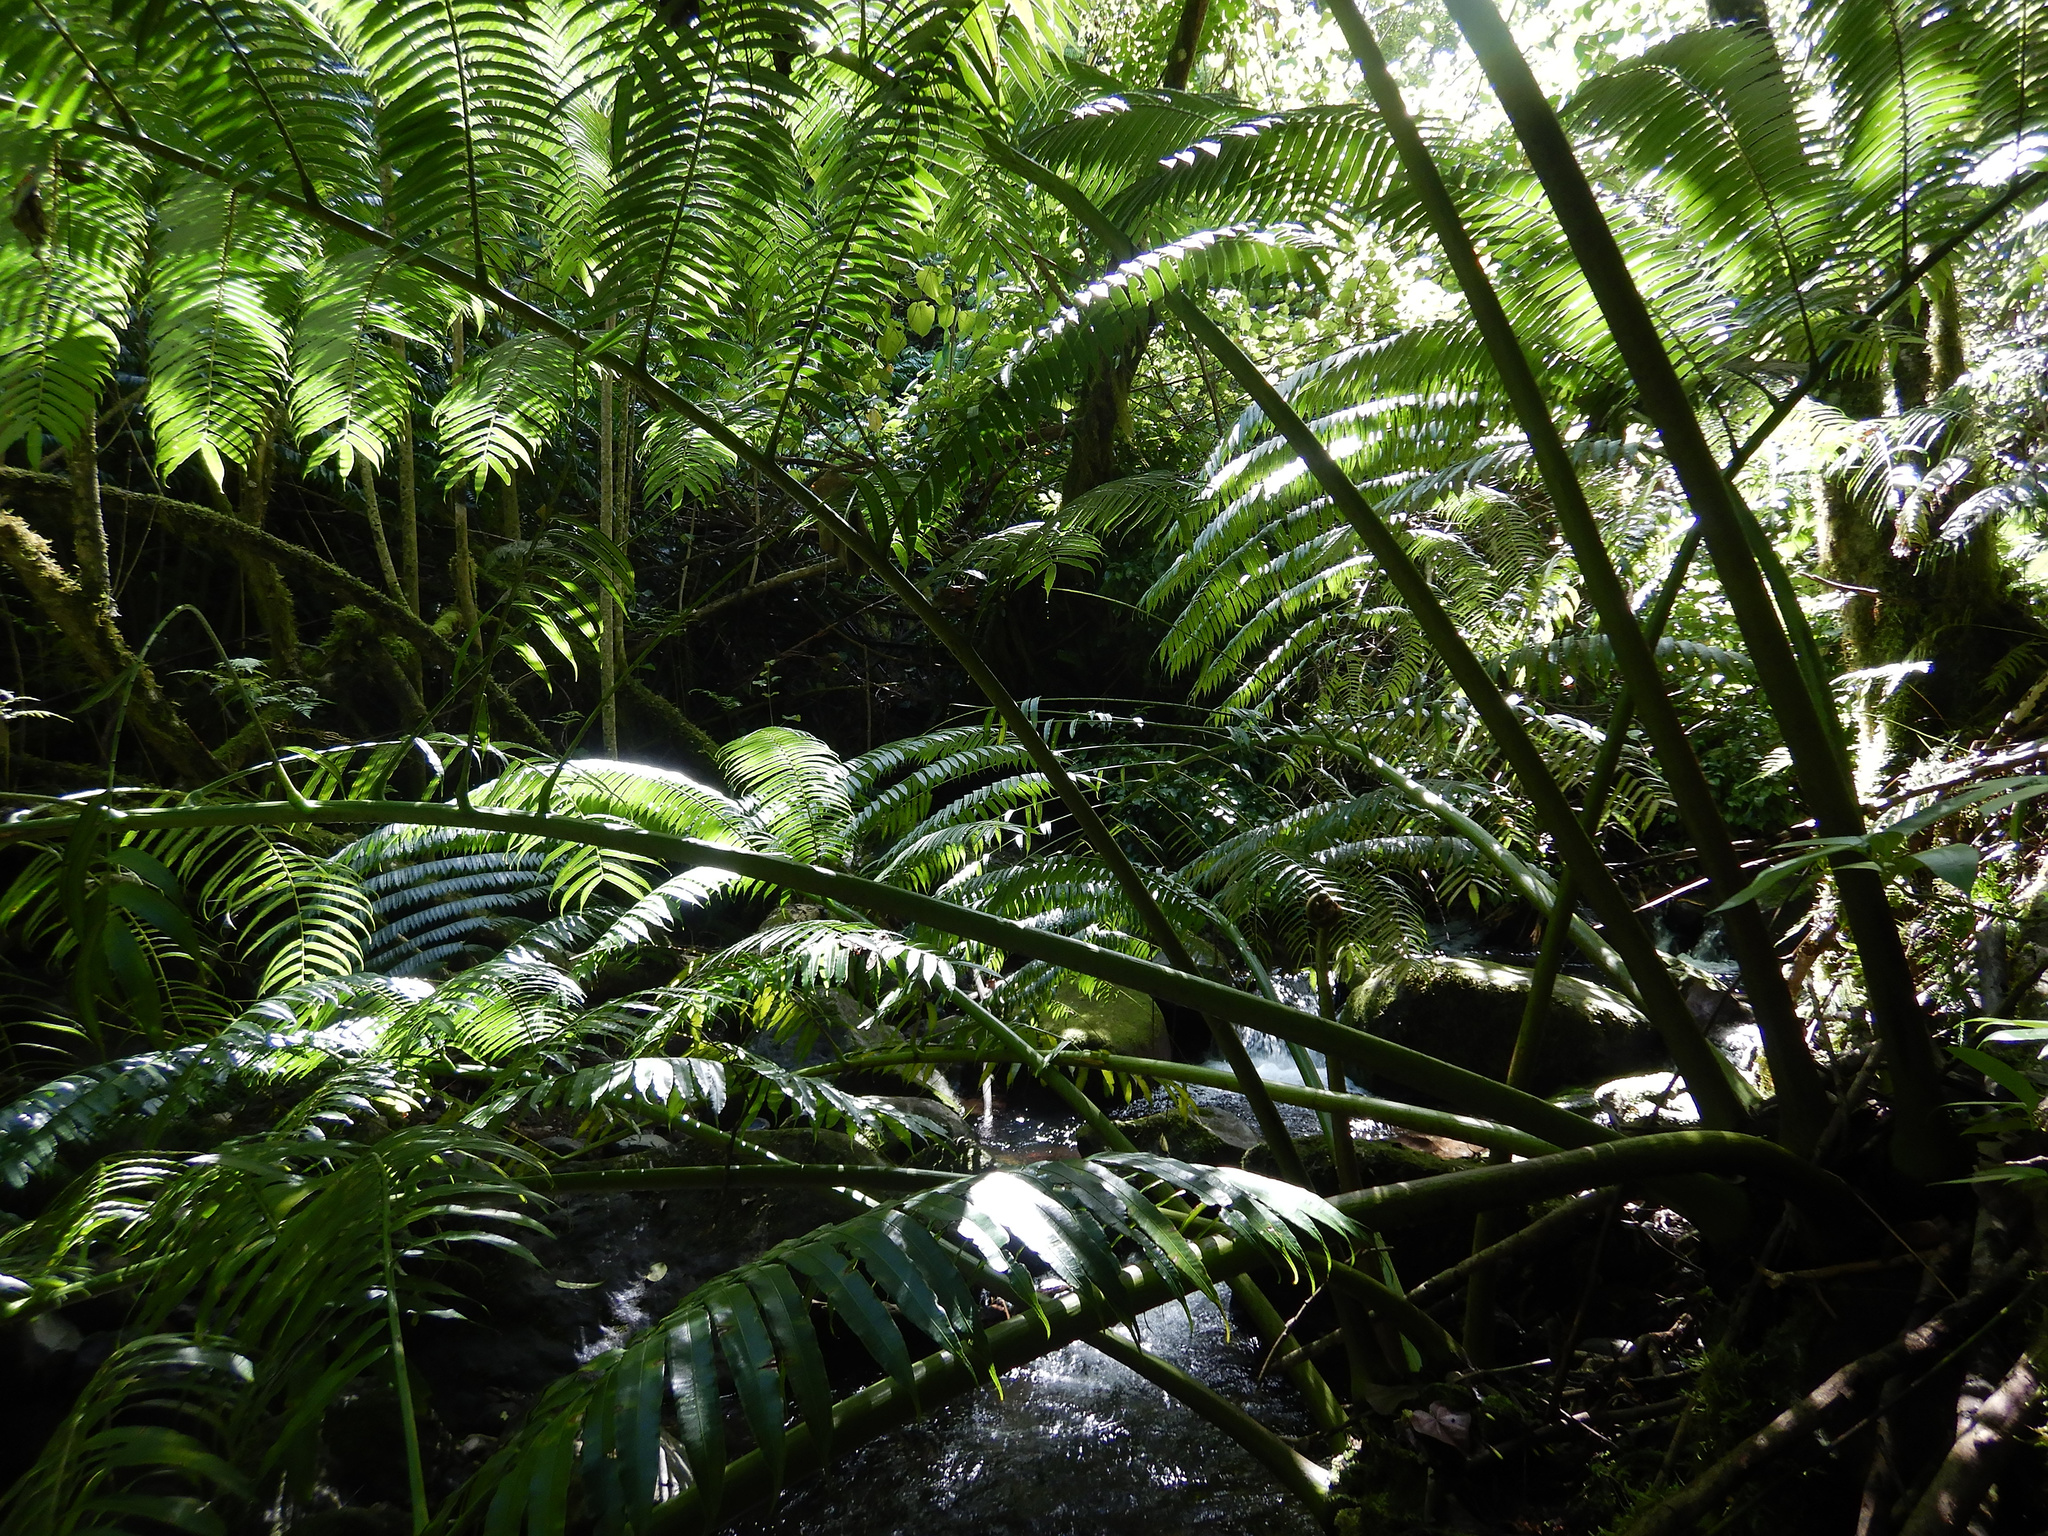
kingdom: Plantae
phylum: Tracheophyta
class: Polypodiopsida
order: Marattiales
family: Marattiaceae
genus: Angiopteris
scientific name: Angiopteris evecta
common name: Mule's-foot fern
